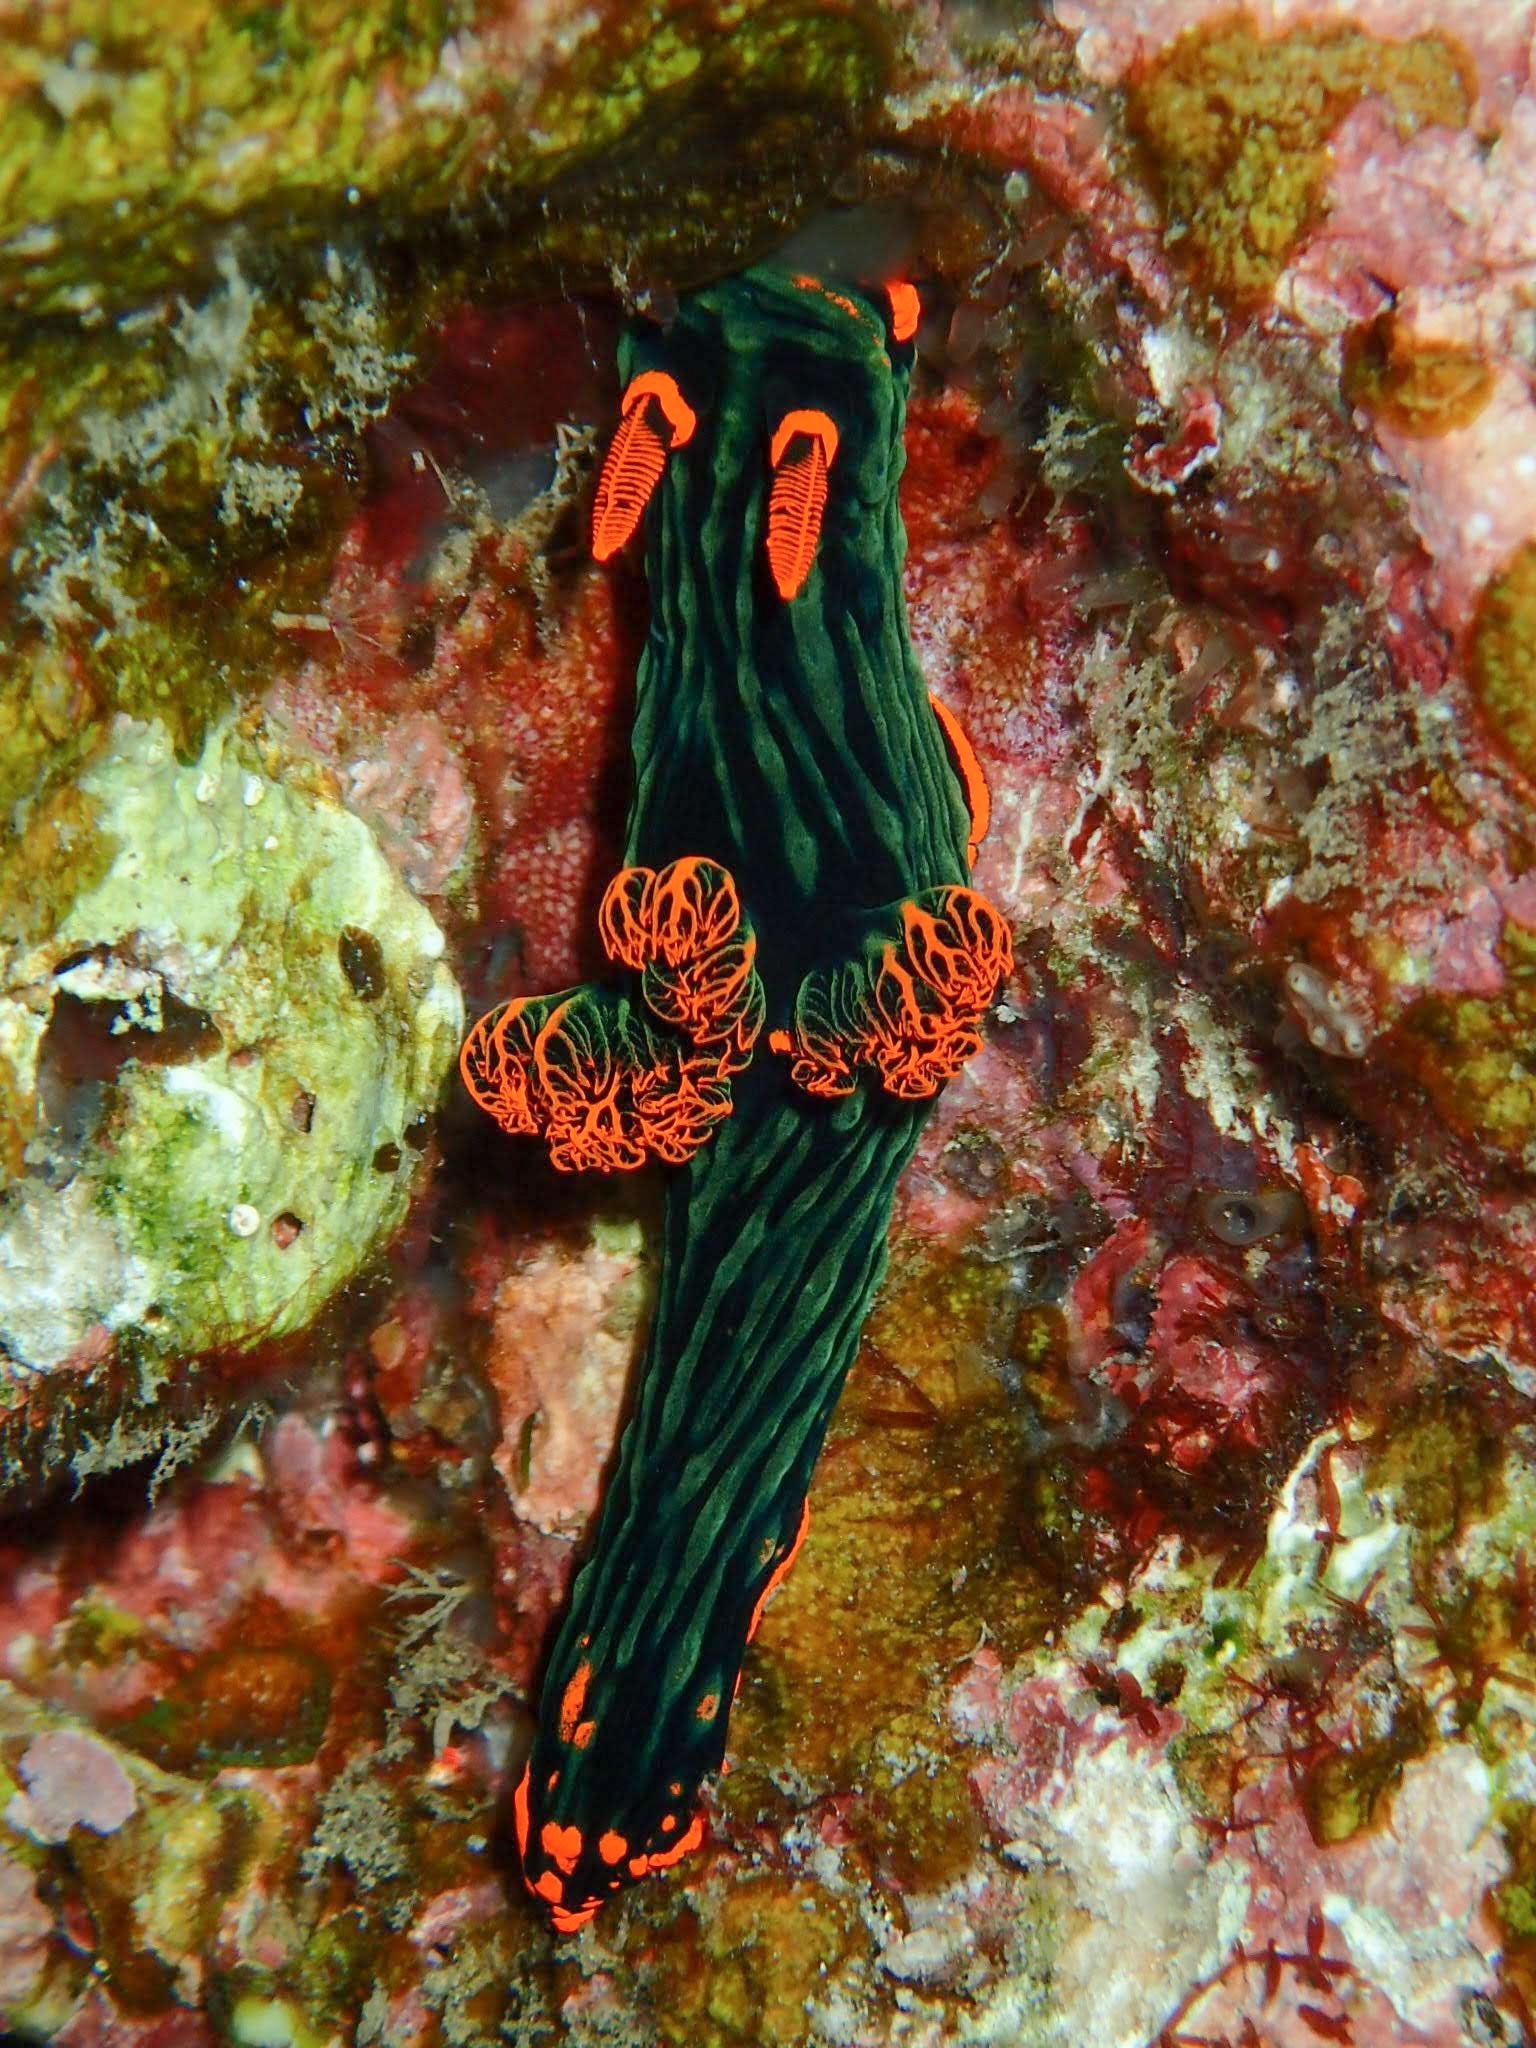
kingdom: Animalia
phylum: Mollusca
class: Gastropoda
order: Nudibranchia
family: Polyceridae
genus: Nembrotha
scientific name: Nembrotha kubaryana
